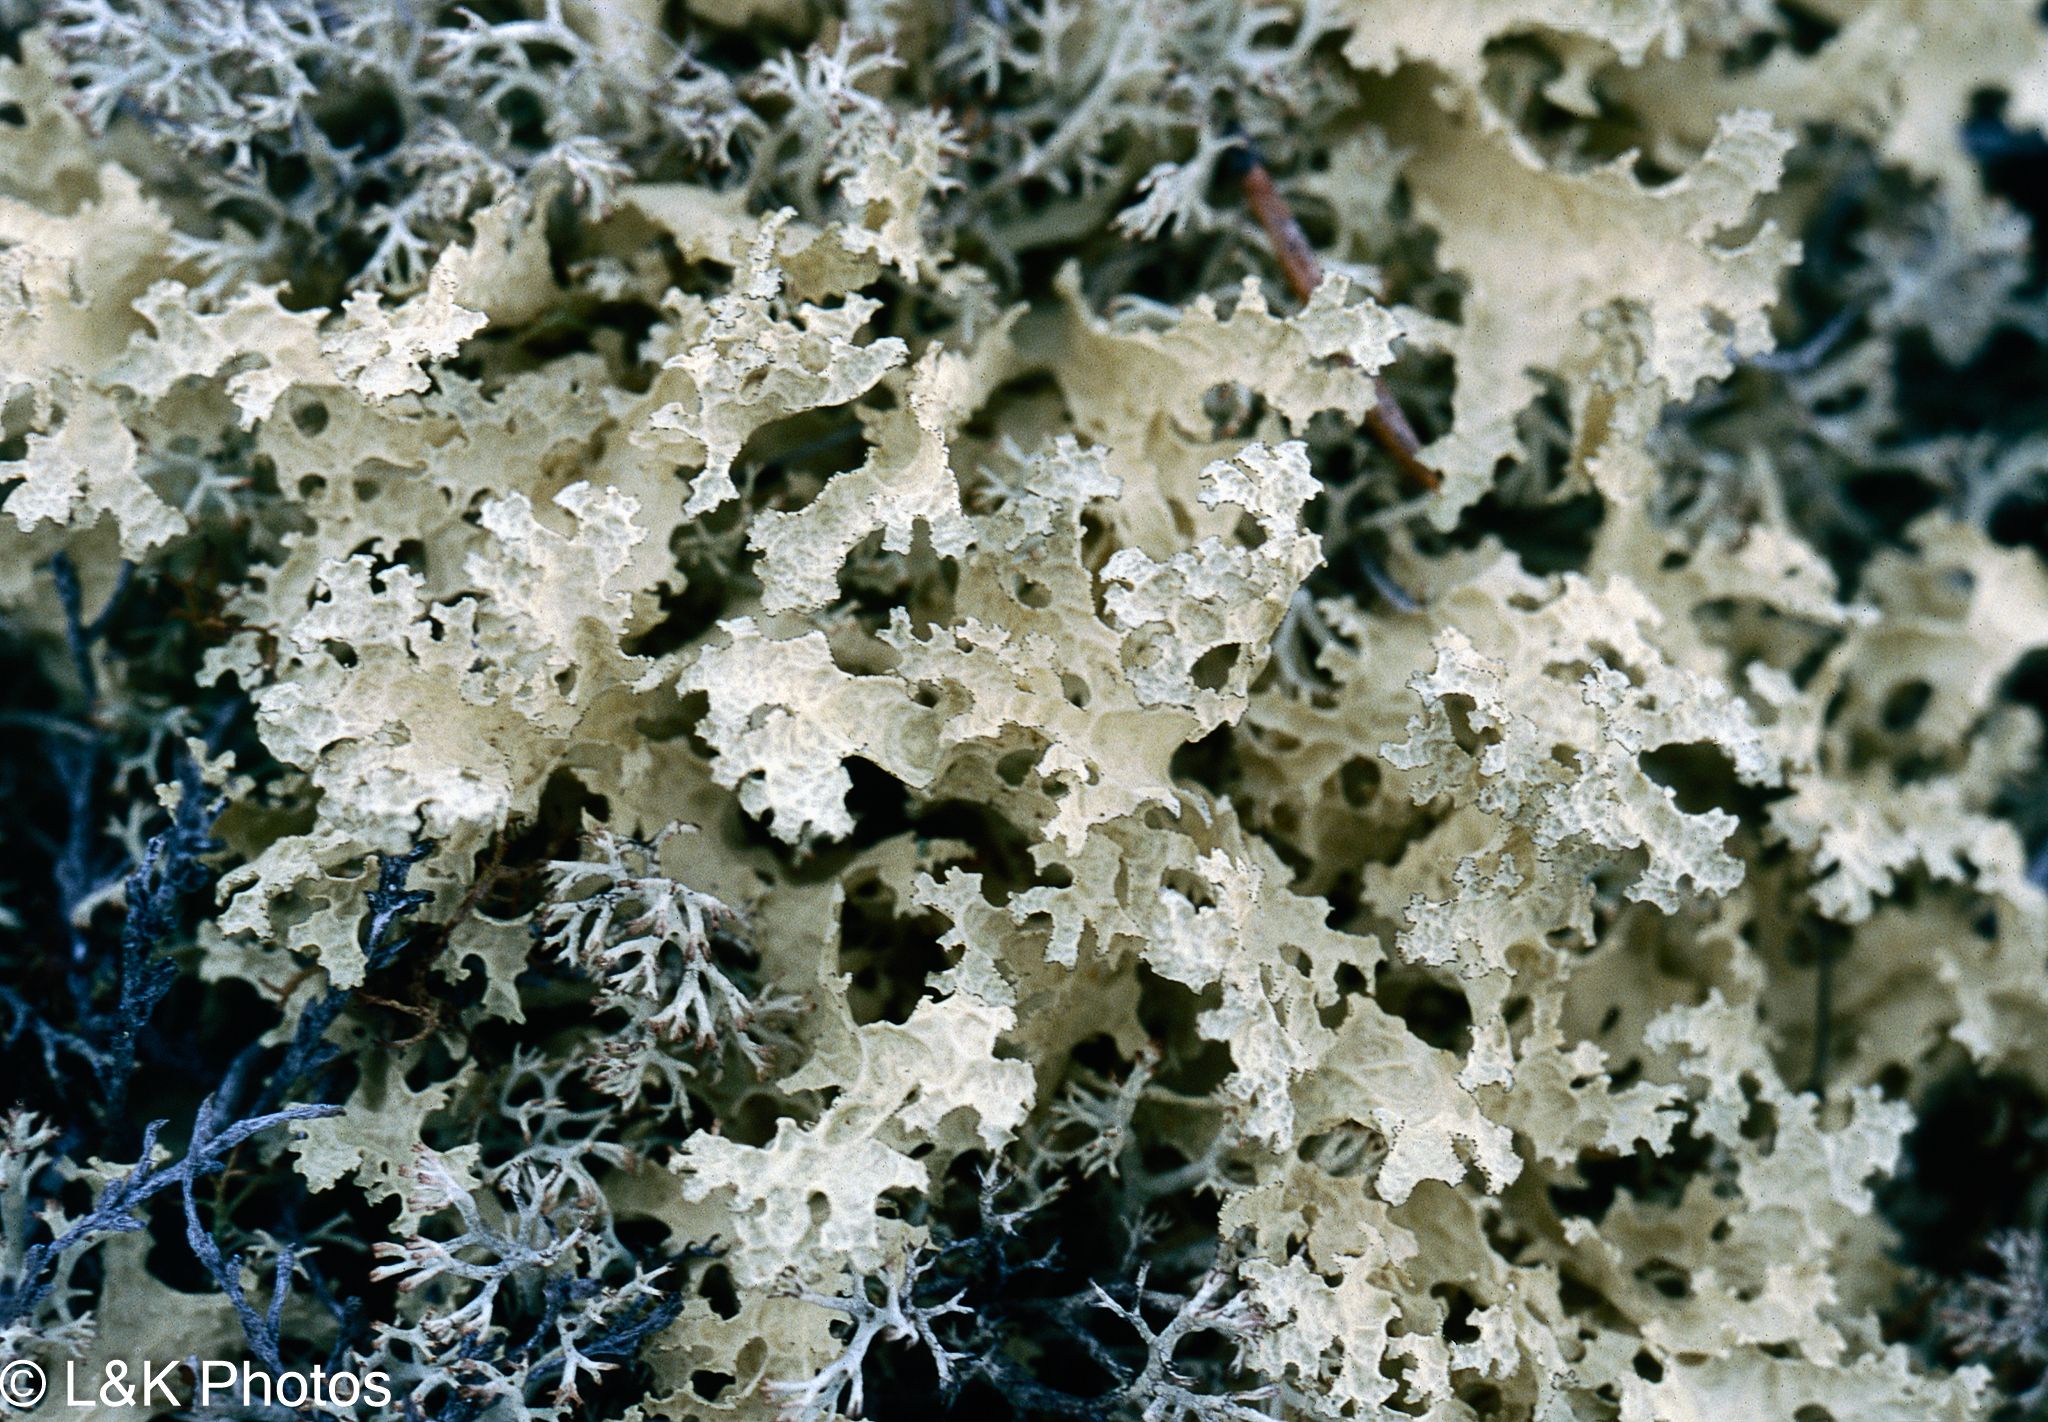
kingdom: Fungi
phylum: Ascomycota
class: Lecanoromycetes
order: Lecanorales
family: Parmeliaceae
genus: Nephromopsis
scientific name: Nephromopsis nivalis
